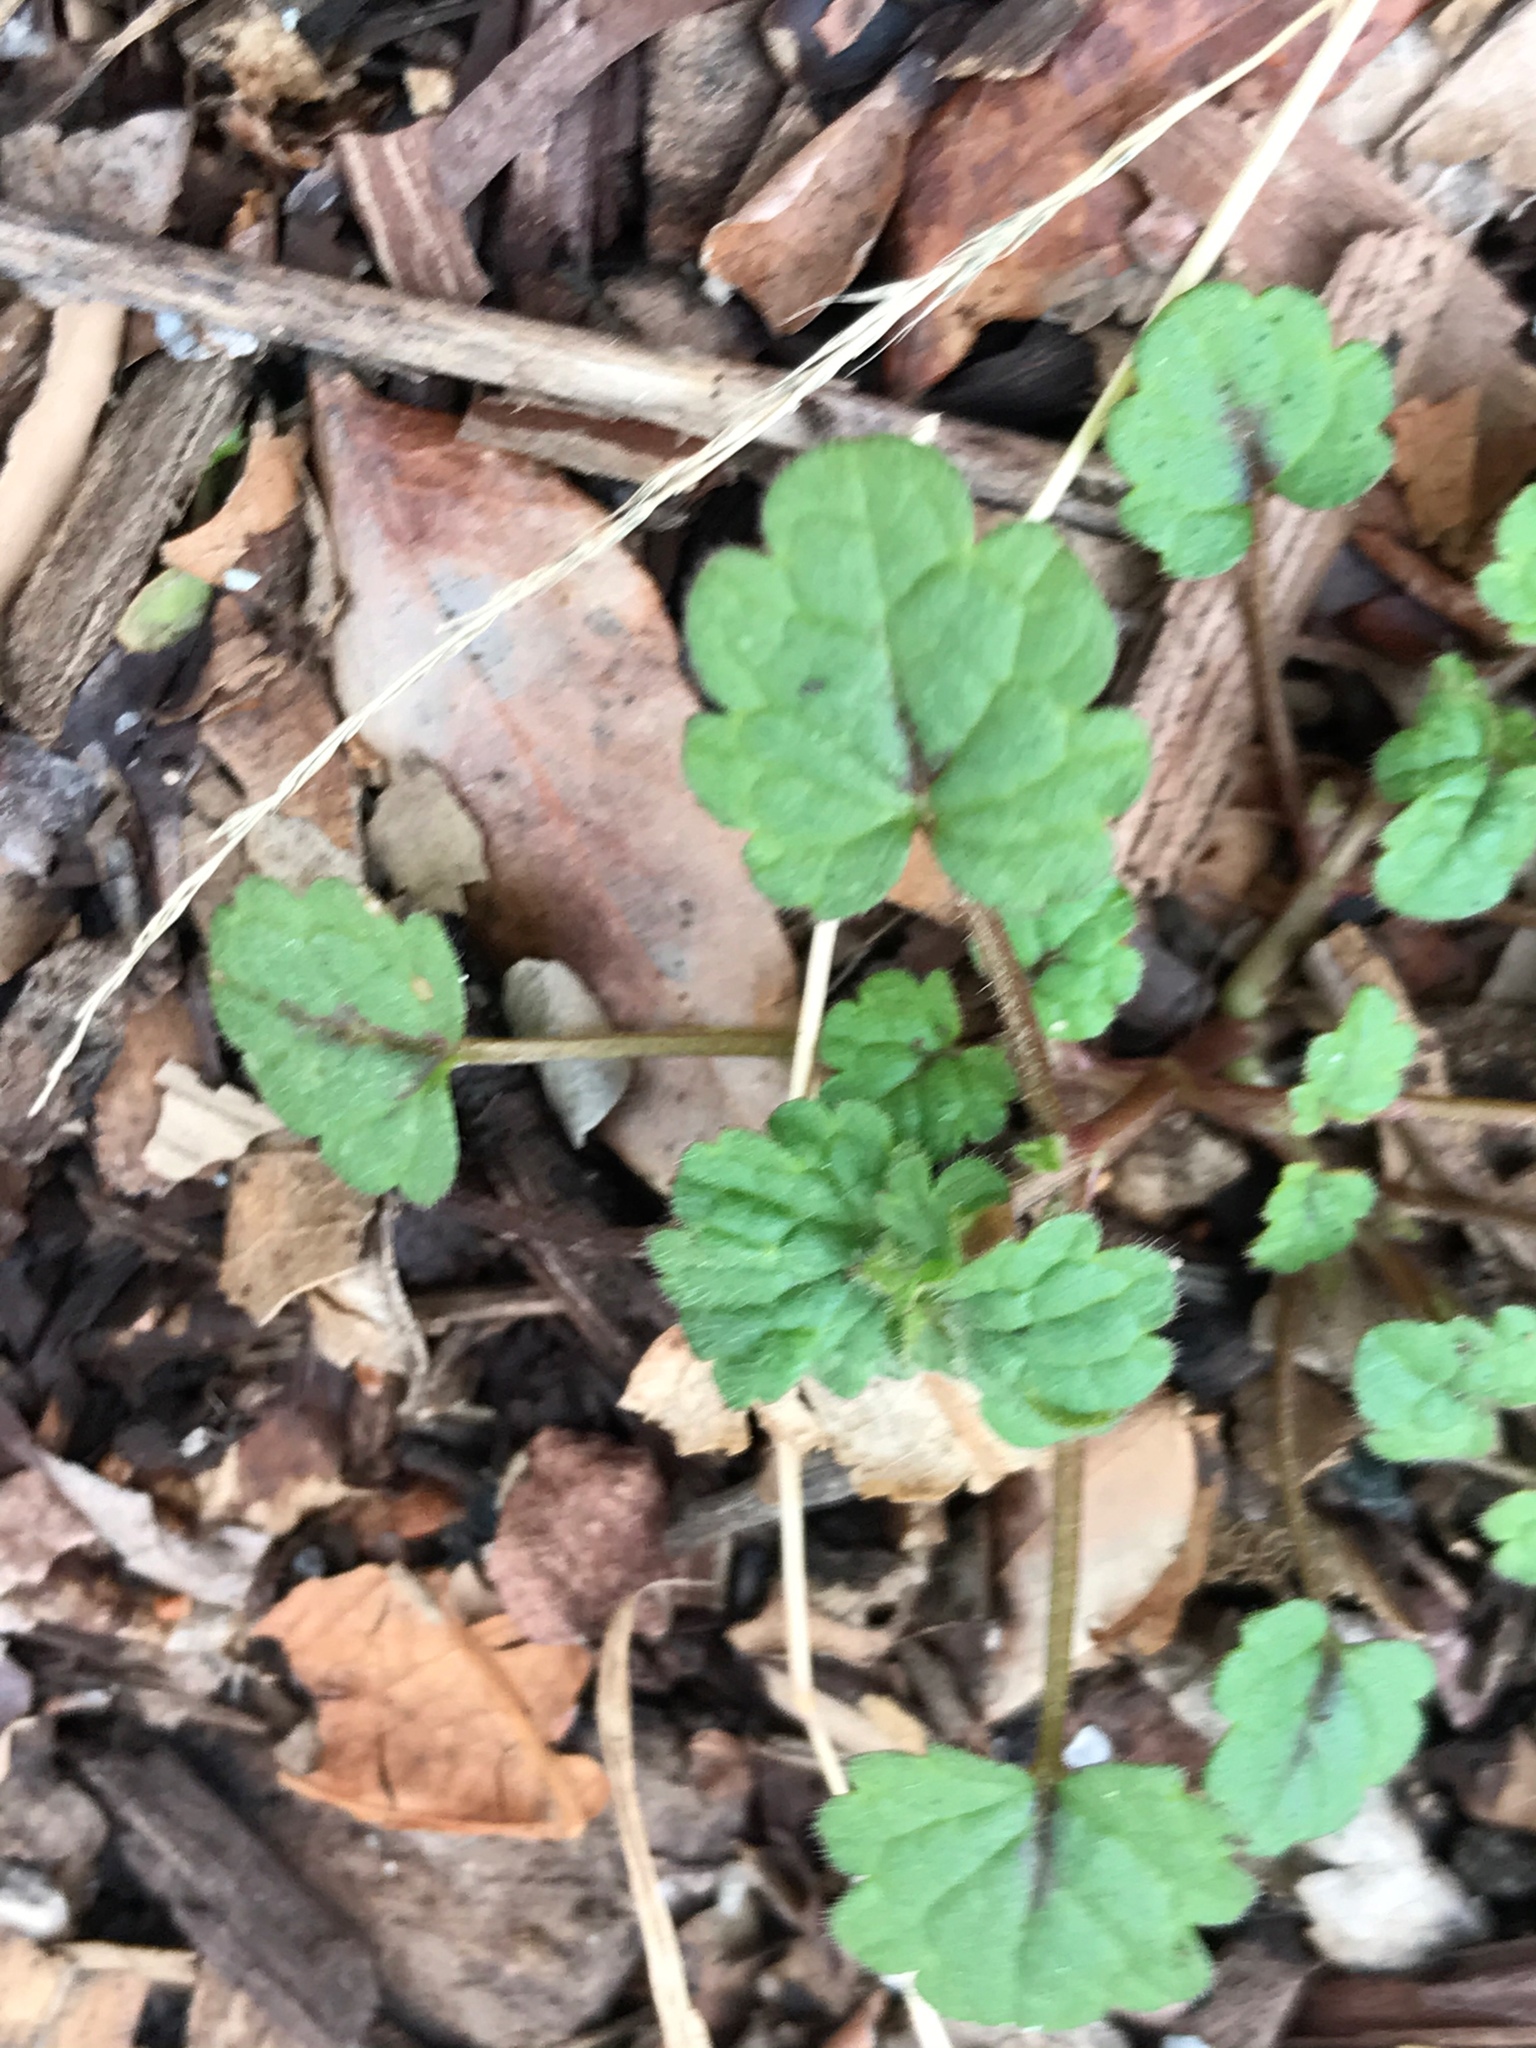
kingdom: Plantae
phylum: Tracheophyta
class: Magnoliopsida
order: Lamiales
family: Lamiaceae
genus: Lamium
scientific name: Lamium amplexicaule
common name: Henbit dead-nettle
